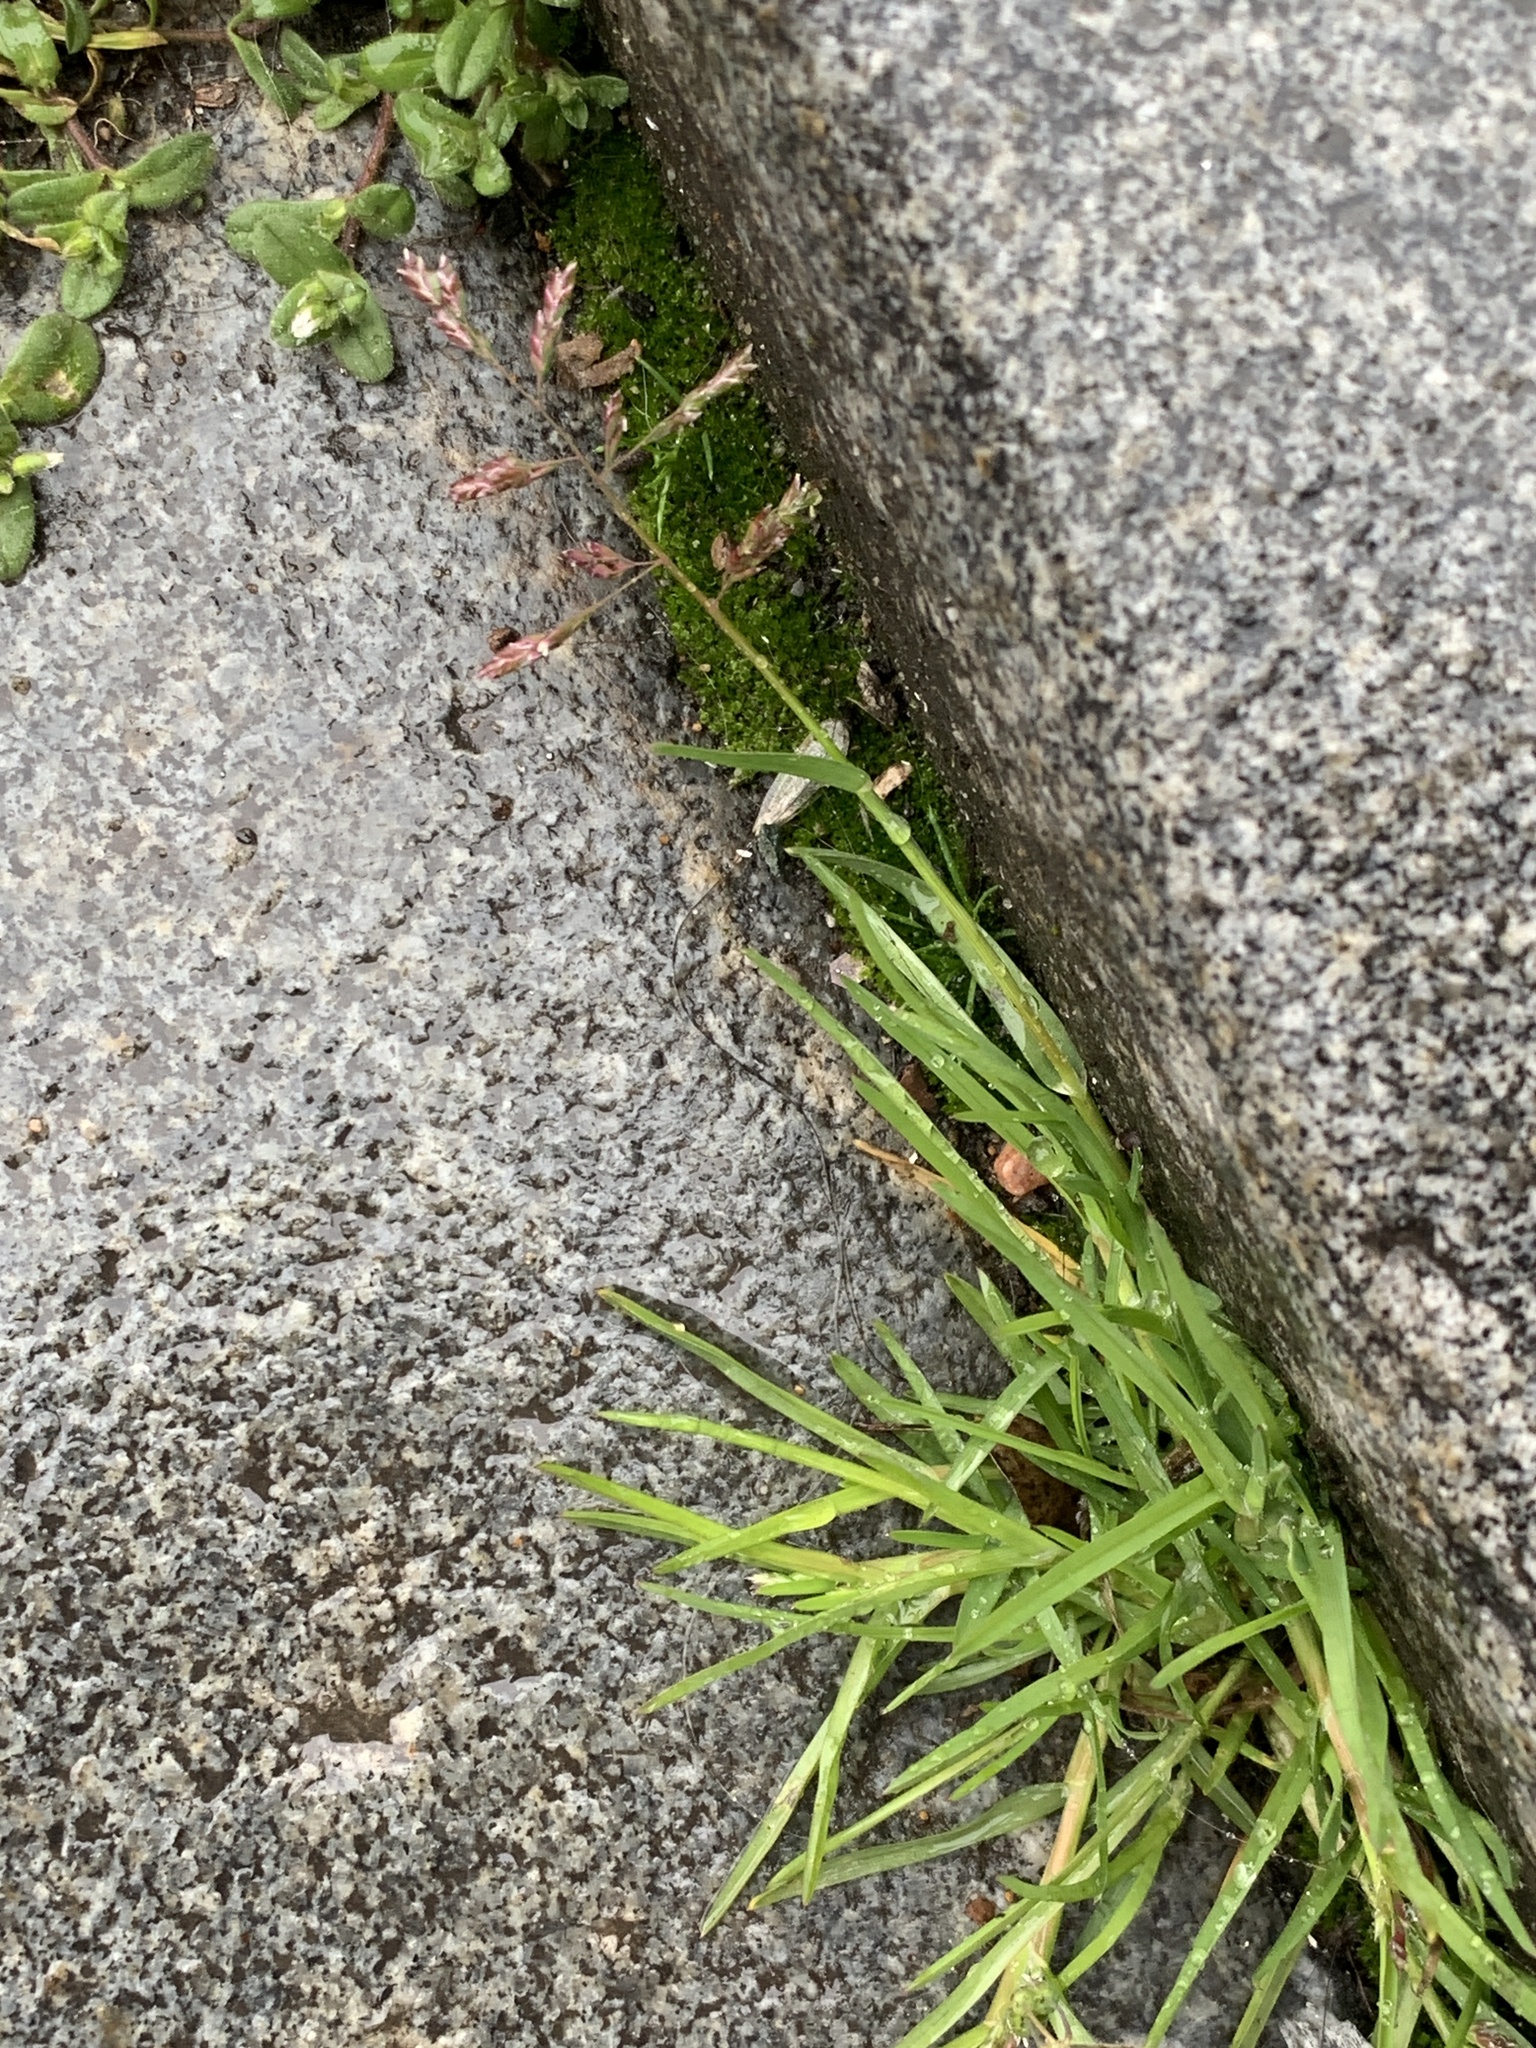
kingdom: Plantae
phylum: Tracheophyta
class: Liliopsida
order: Poales
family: Poaceae
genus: Poa
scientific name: Poa annua
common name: Annual bluegrass
